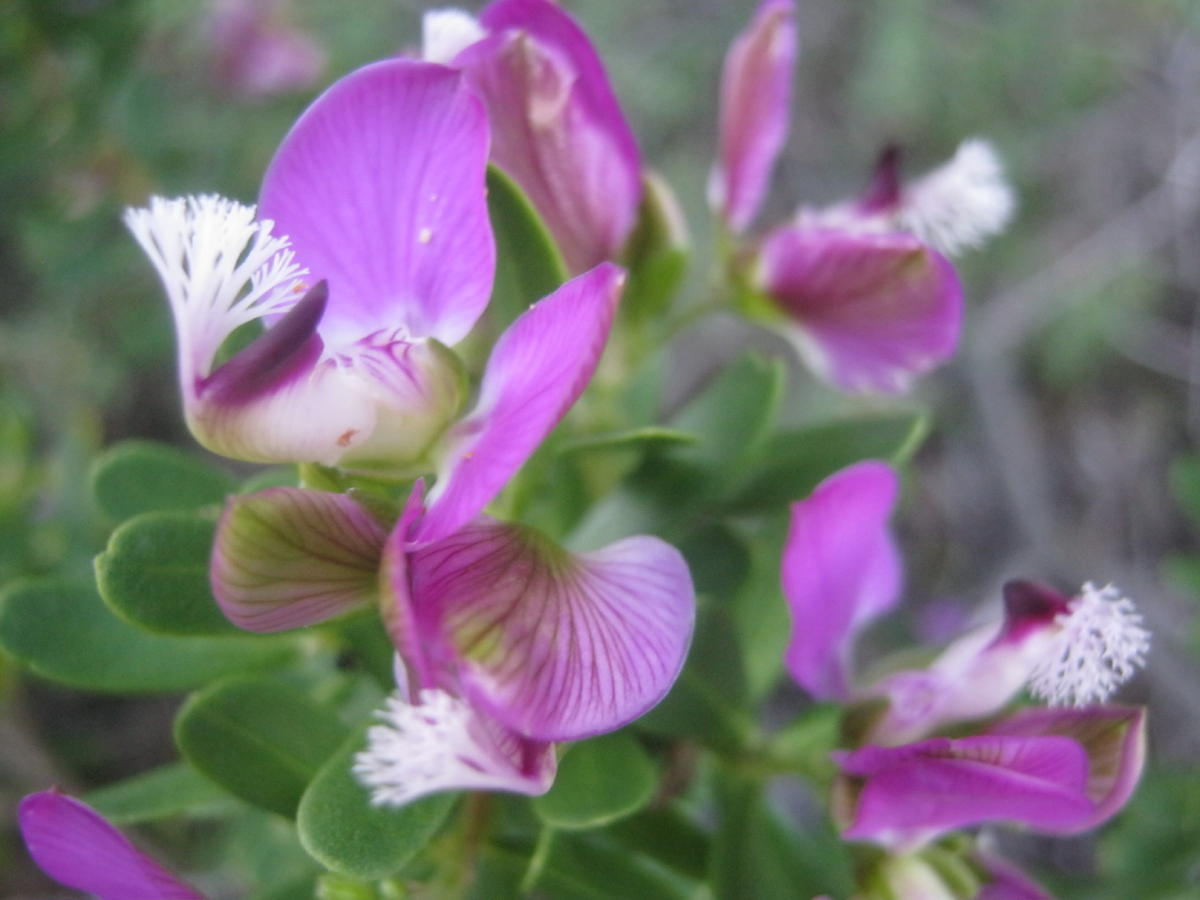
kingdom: Plantae
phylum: Tracheophyta
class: Magnoliopsida
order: Fabales
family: Polygalaceae
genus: Polygala
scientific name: Polygala myrtifolia
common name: Myrtle-leaf milkwort
